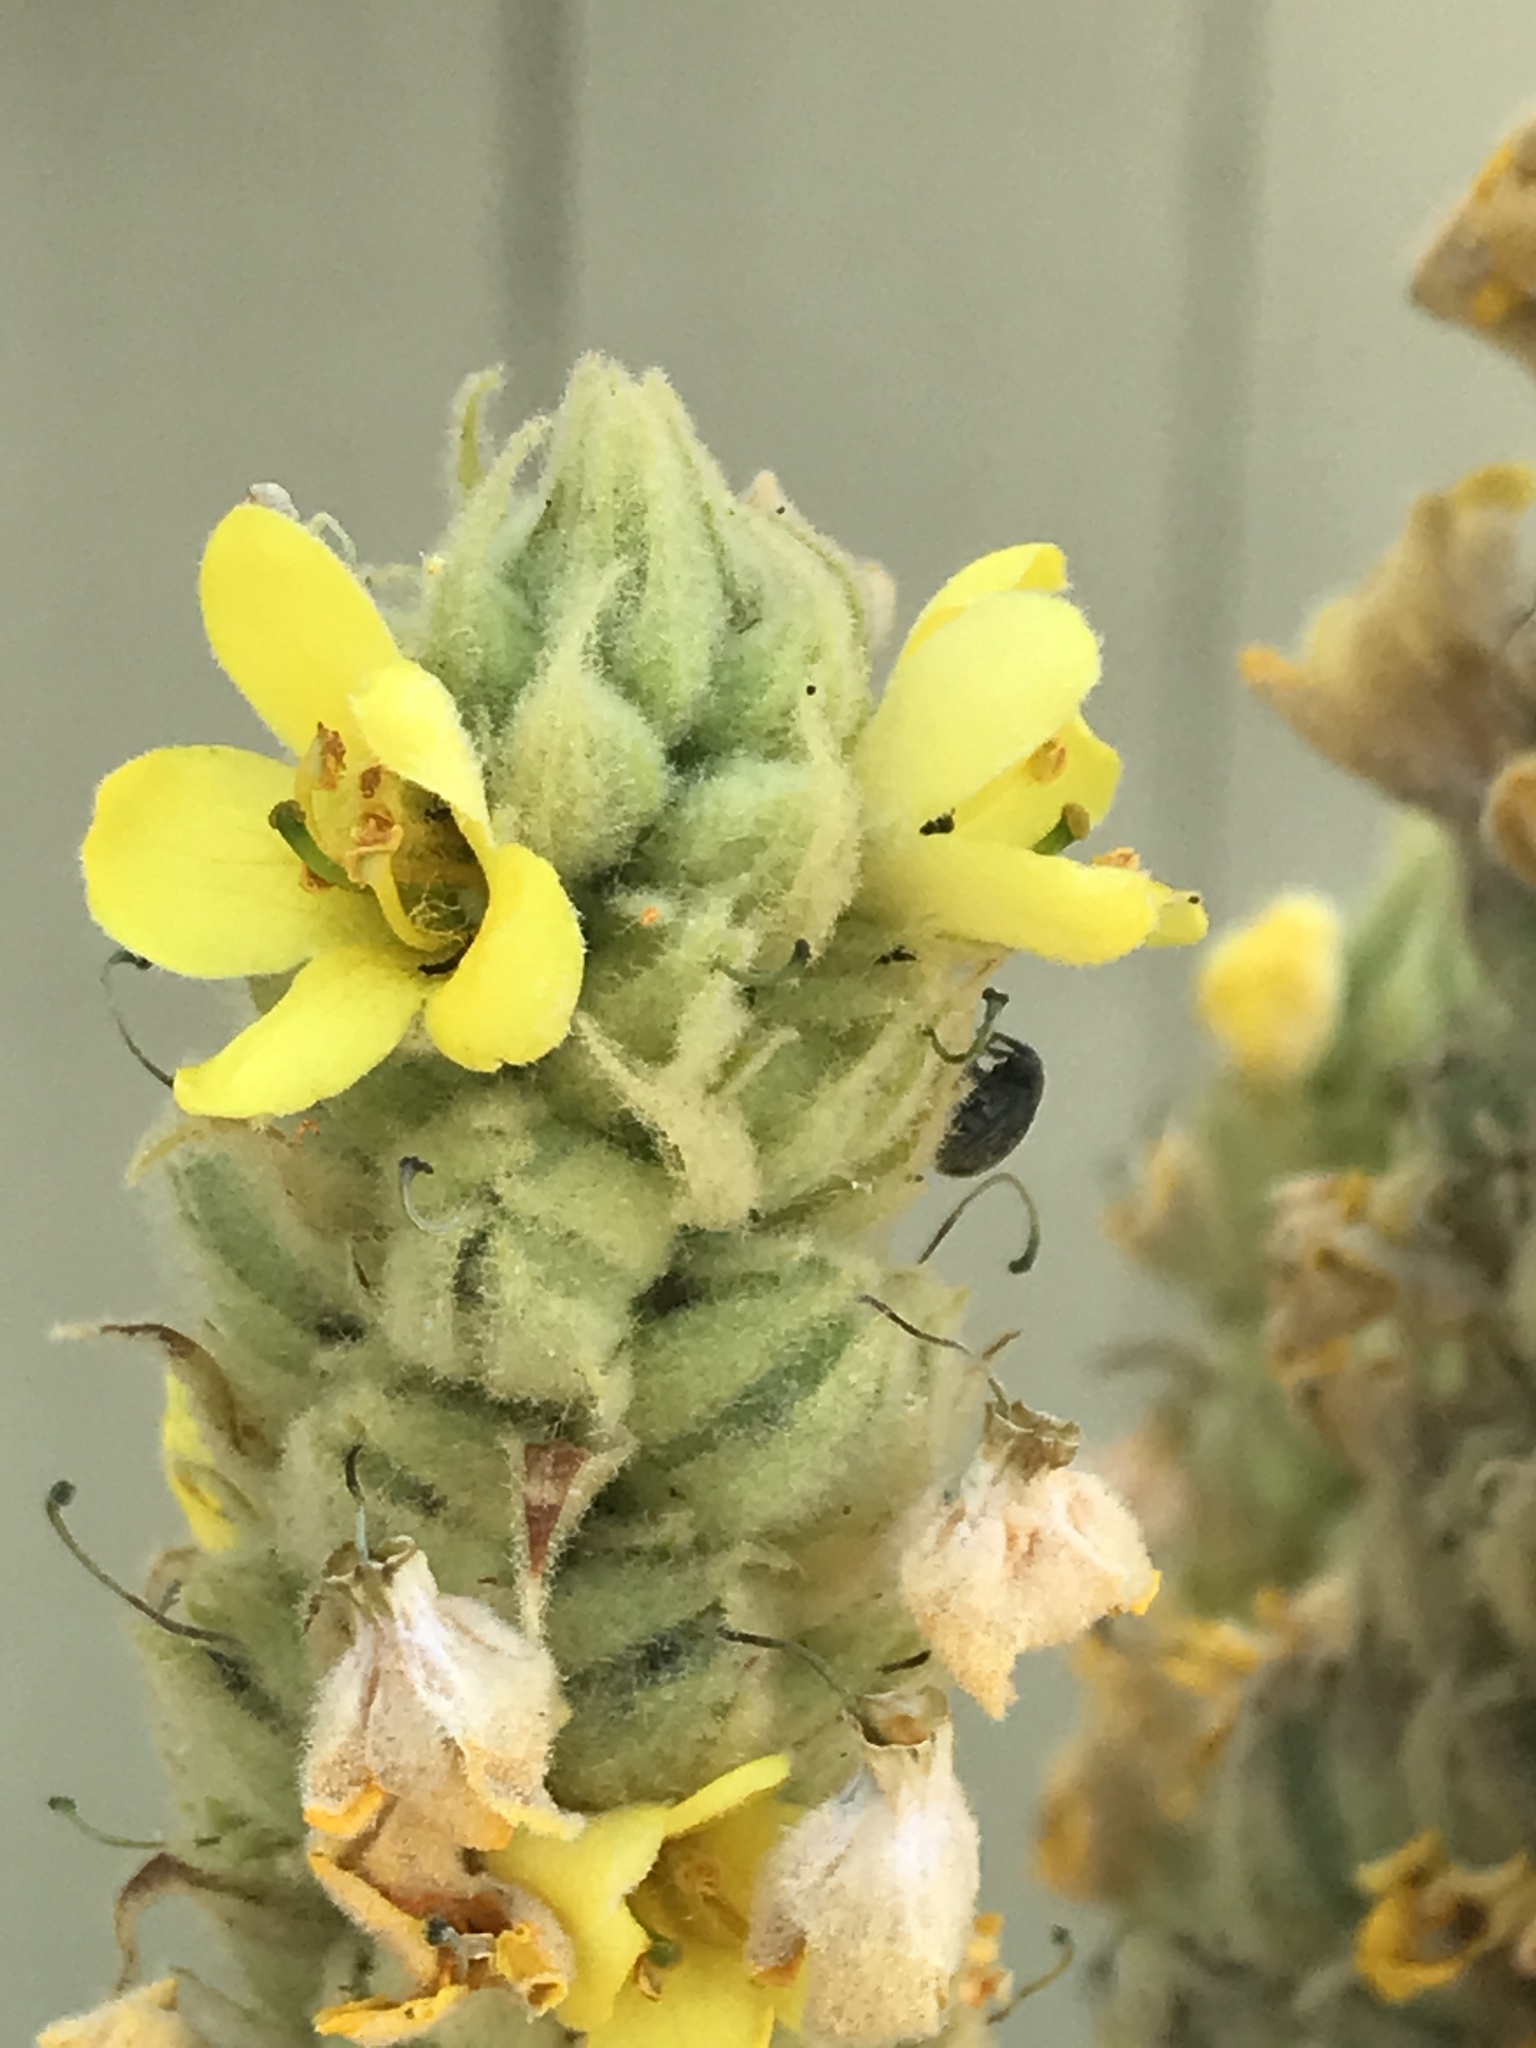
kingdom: Plantae
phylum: Tracheophyta
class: Magnoliopsida
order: Lamiales
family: Scrophulariaceae
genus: Verbascum
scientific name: Verbascum thapsus
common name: Common mullein
